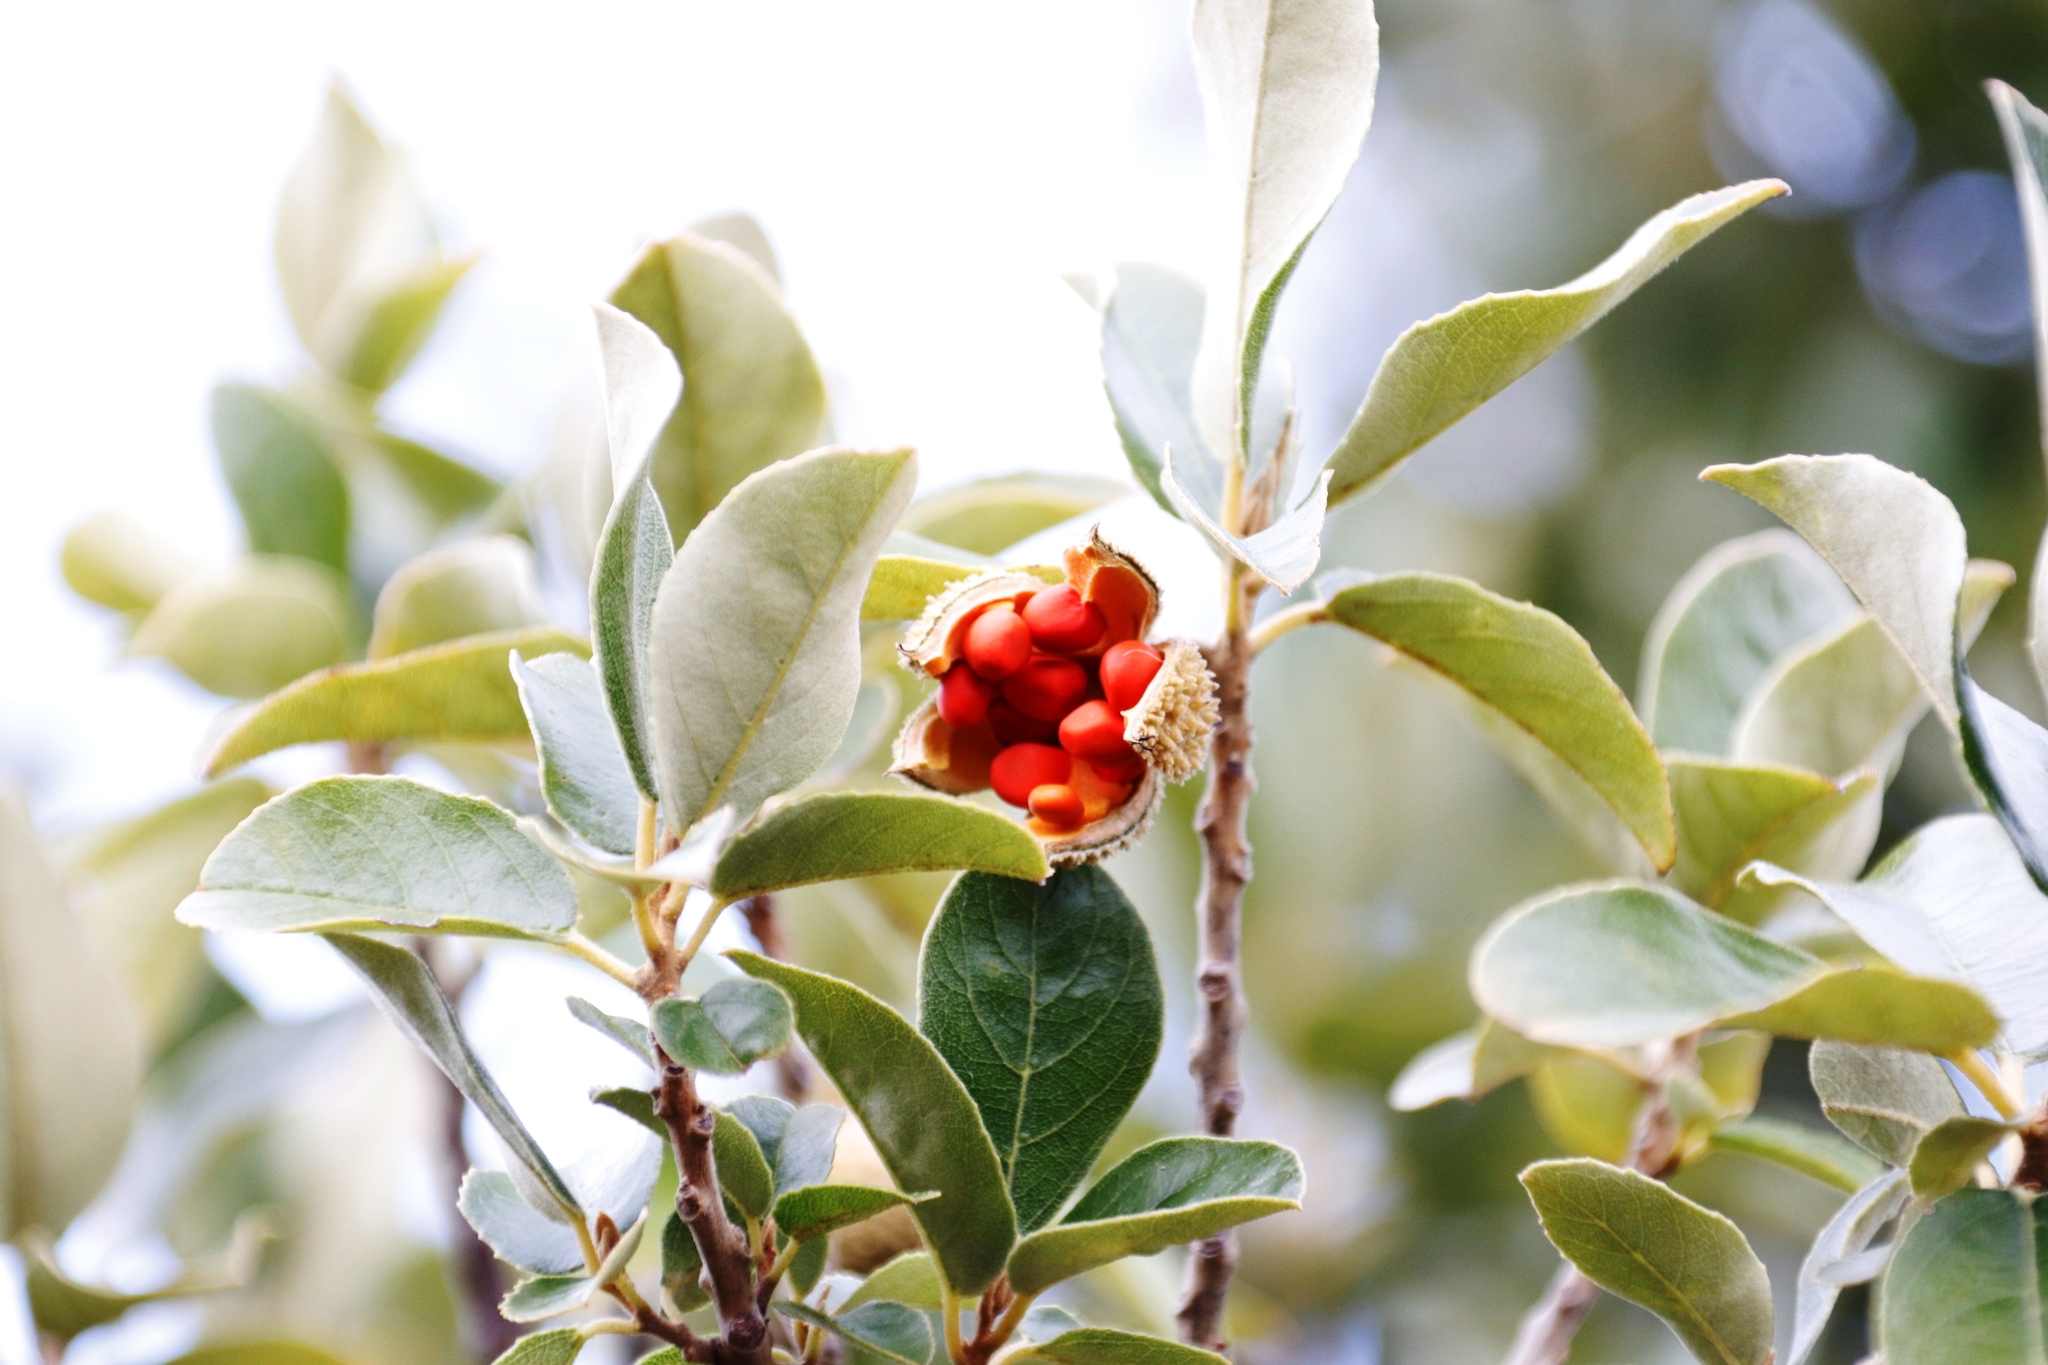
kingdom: Plantae
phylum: Tracheophyta
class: Magnoliopsida
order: Malpighiales
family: Achariaceae
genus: Kiggelaria
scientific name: Kiggelaria africana
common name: Wild peach
